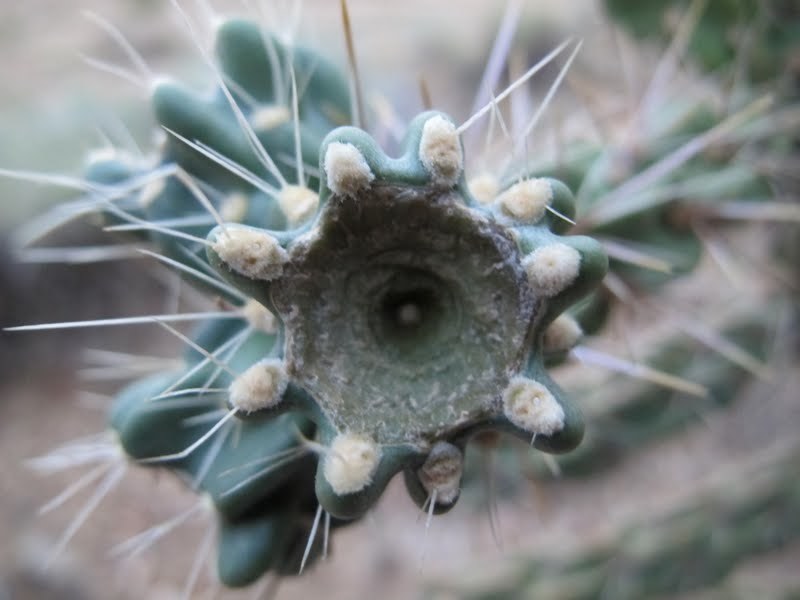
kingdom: Plantae
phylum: Tracheophyta
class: Magnoliopsida
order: Caryophyllales
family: Cactaceae
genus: Cylindropuntia
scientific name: Cylindropuntia imbricata
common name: Candelabrum cactus
